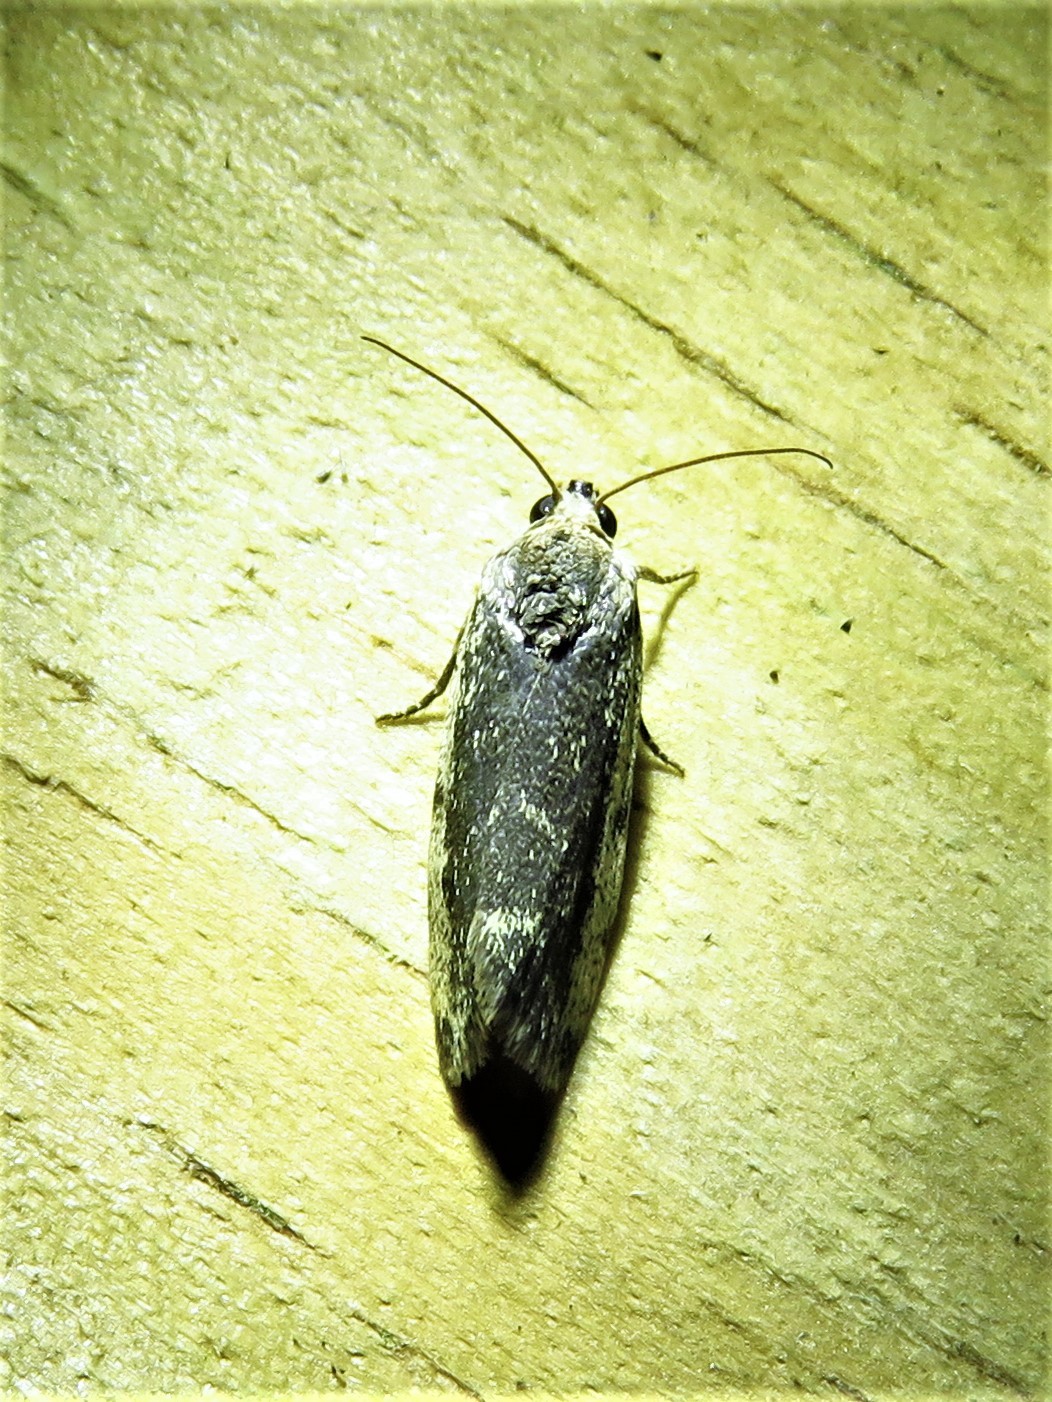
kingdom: Animalia
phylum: Arthropoda
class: Insecta
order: Lepidoptera
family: Noctuidae
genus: Acontia
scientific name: Acontia fasciatella
